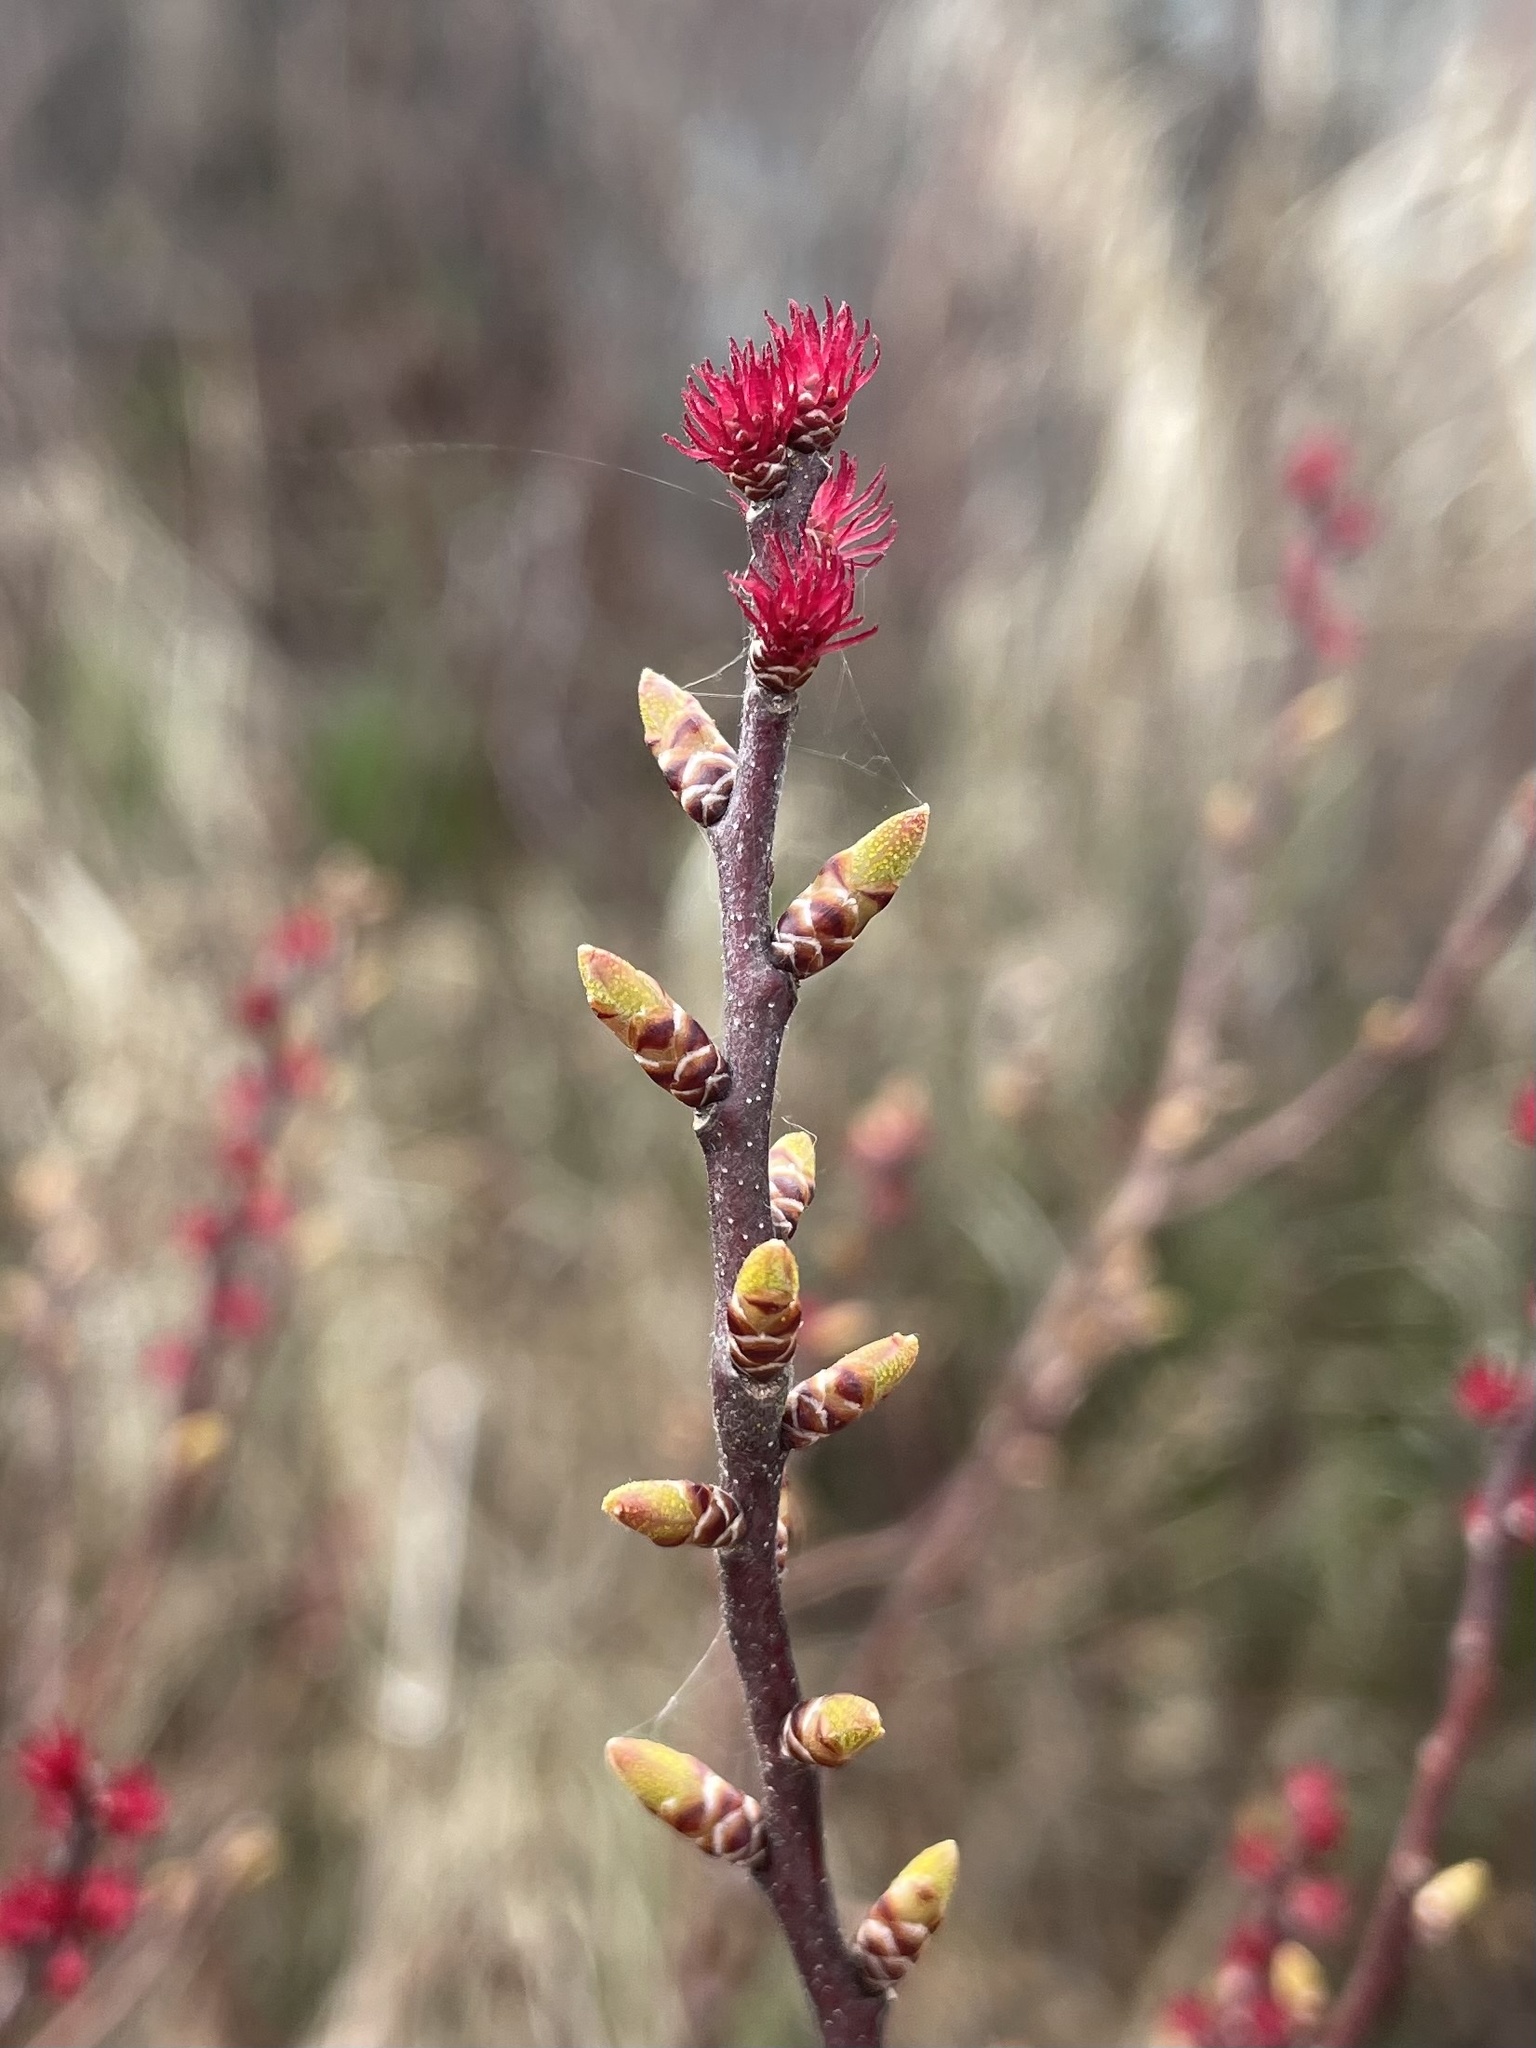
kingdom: Plantae
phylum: Tracheophyta
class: Magnoliopsida
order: Fagales
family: Myricaceae
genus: Myrica
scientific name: Myrica gale
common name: Sweet gale
